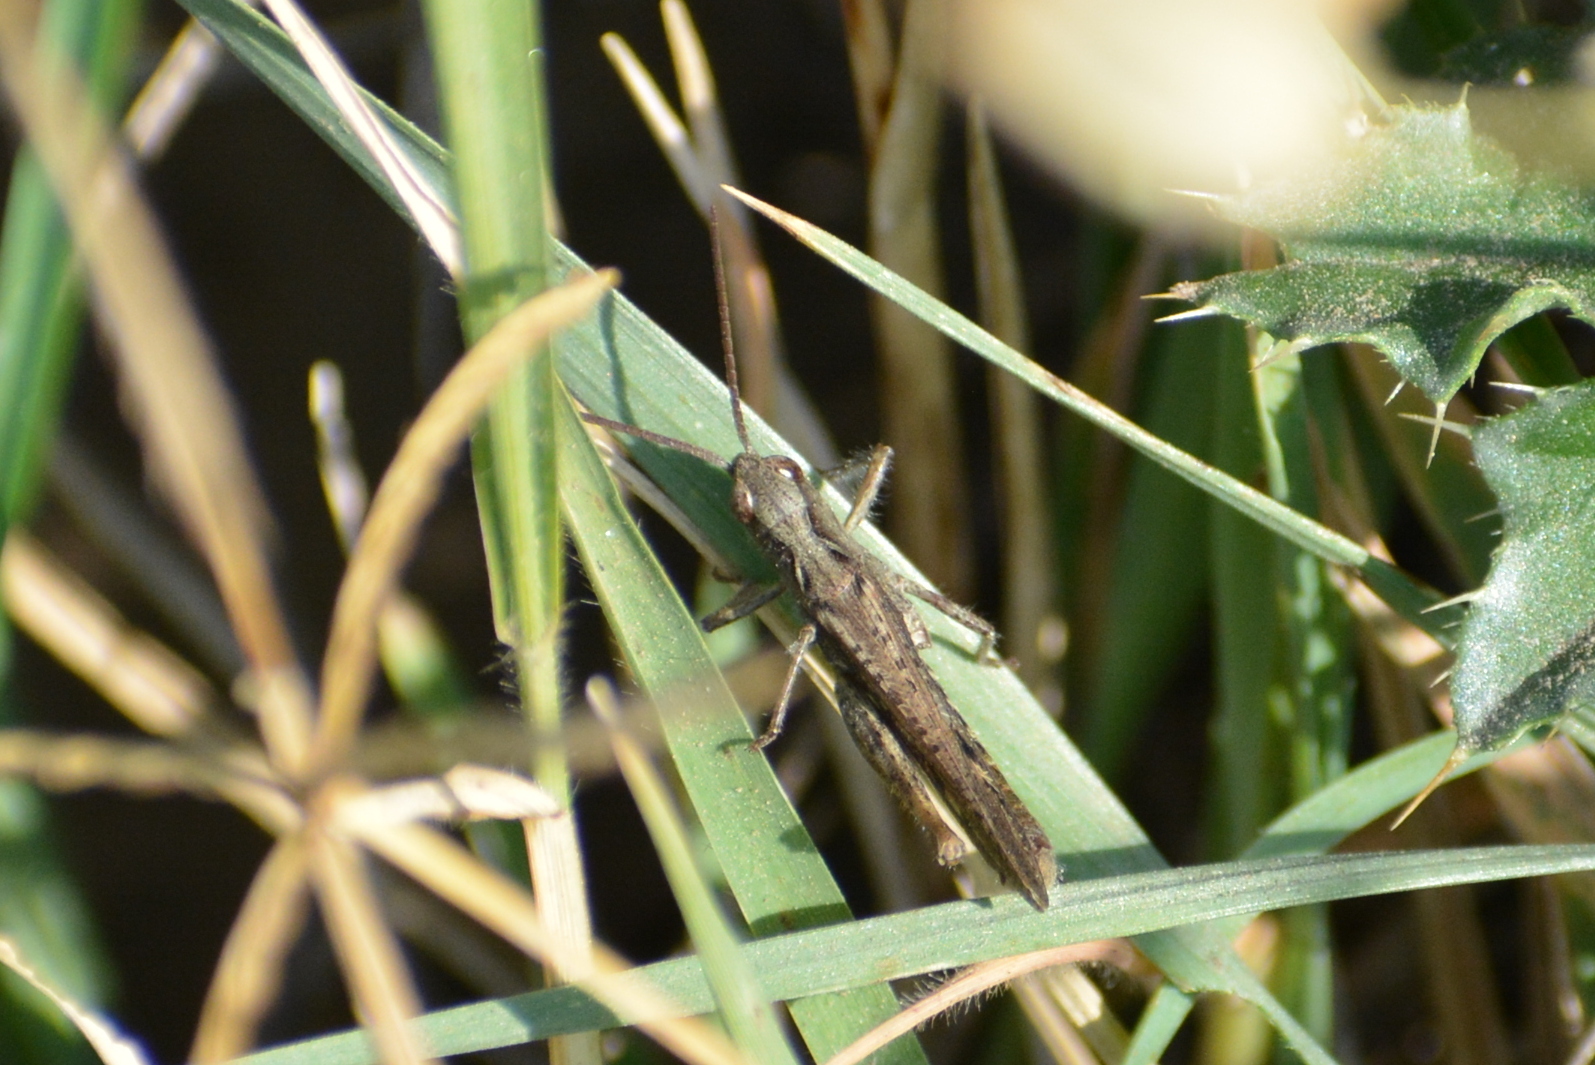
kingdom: Animalia
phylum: Arthropoda
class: Insecta
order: Orthoptera
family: Acrididae
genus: Chorthippus
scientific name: Chorthippus mollis
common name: Lesser field grasshopper
